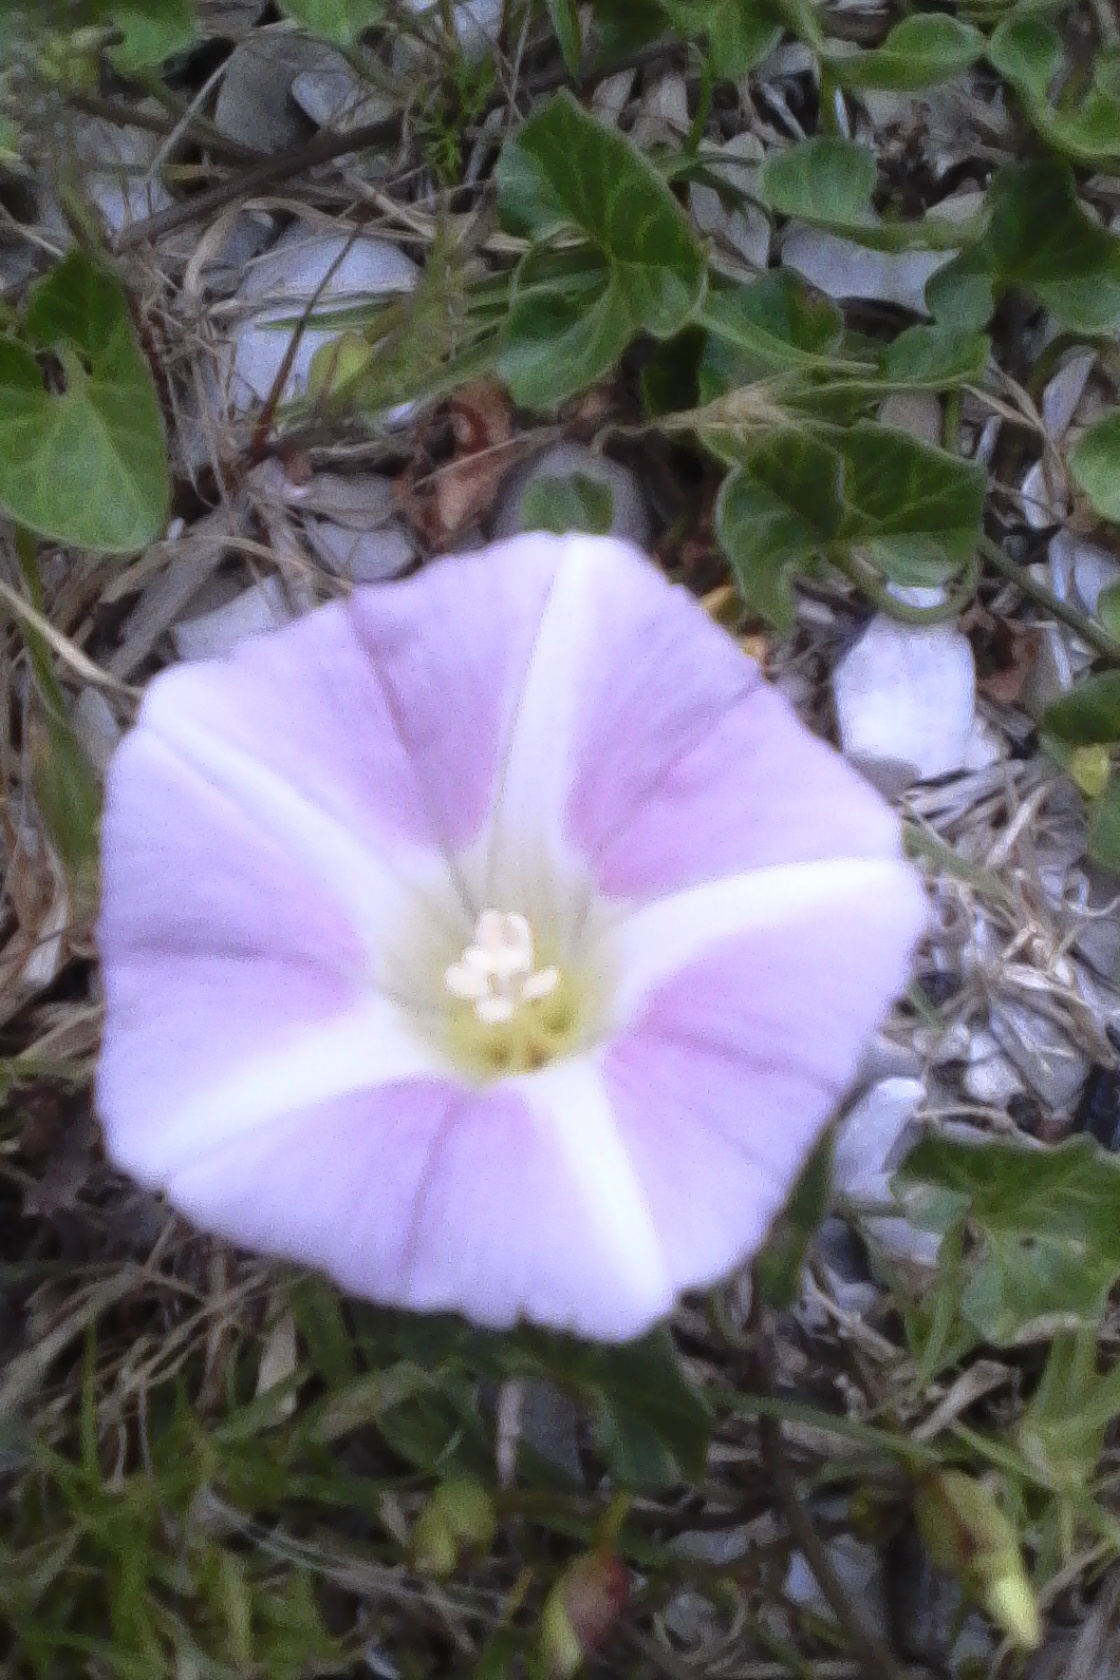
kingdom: Plantae
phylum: Tracheophyta
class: Magnoliopsida
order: Solanales
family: Convolvulaceae
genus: Calystegia
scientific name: Calystegia soldanella
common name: Sea bindweed
